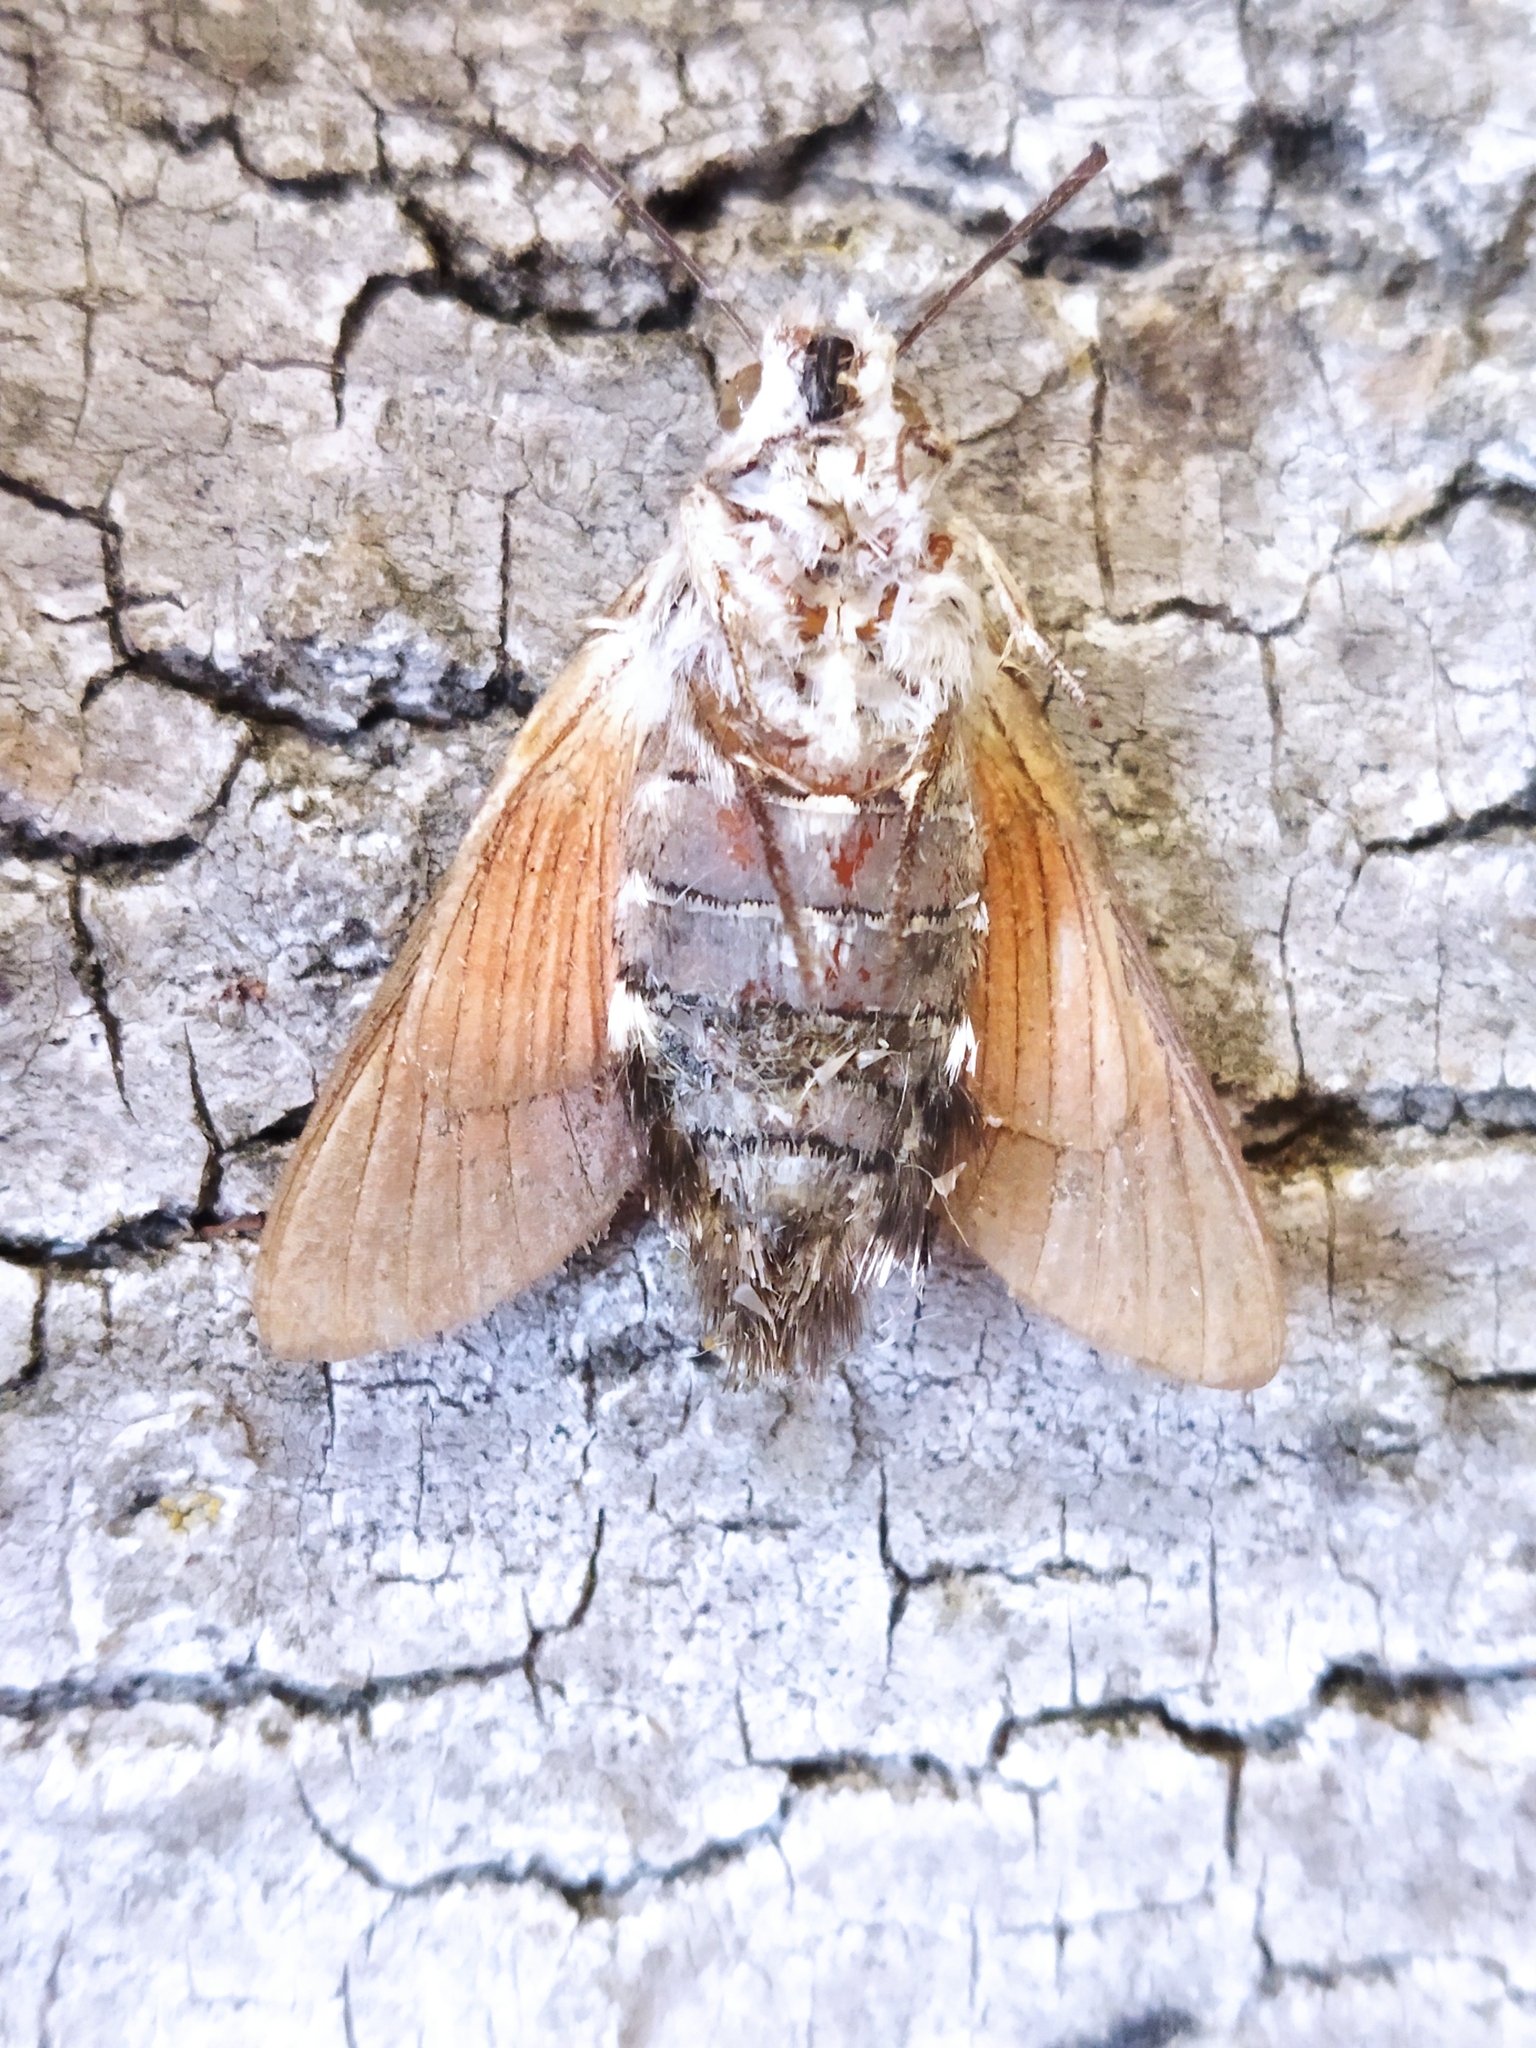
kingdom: Animalia
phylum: Arthropoda
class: Insecta
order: Lepidoptera
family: Sphingidae
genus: Macroglossum
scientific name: Macroglossum stellatarum
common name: Humming-bird hawk-moth
